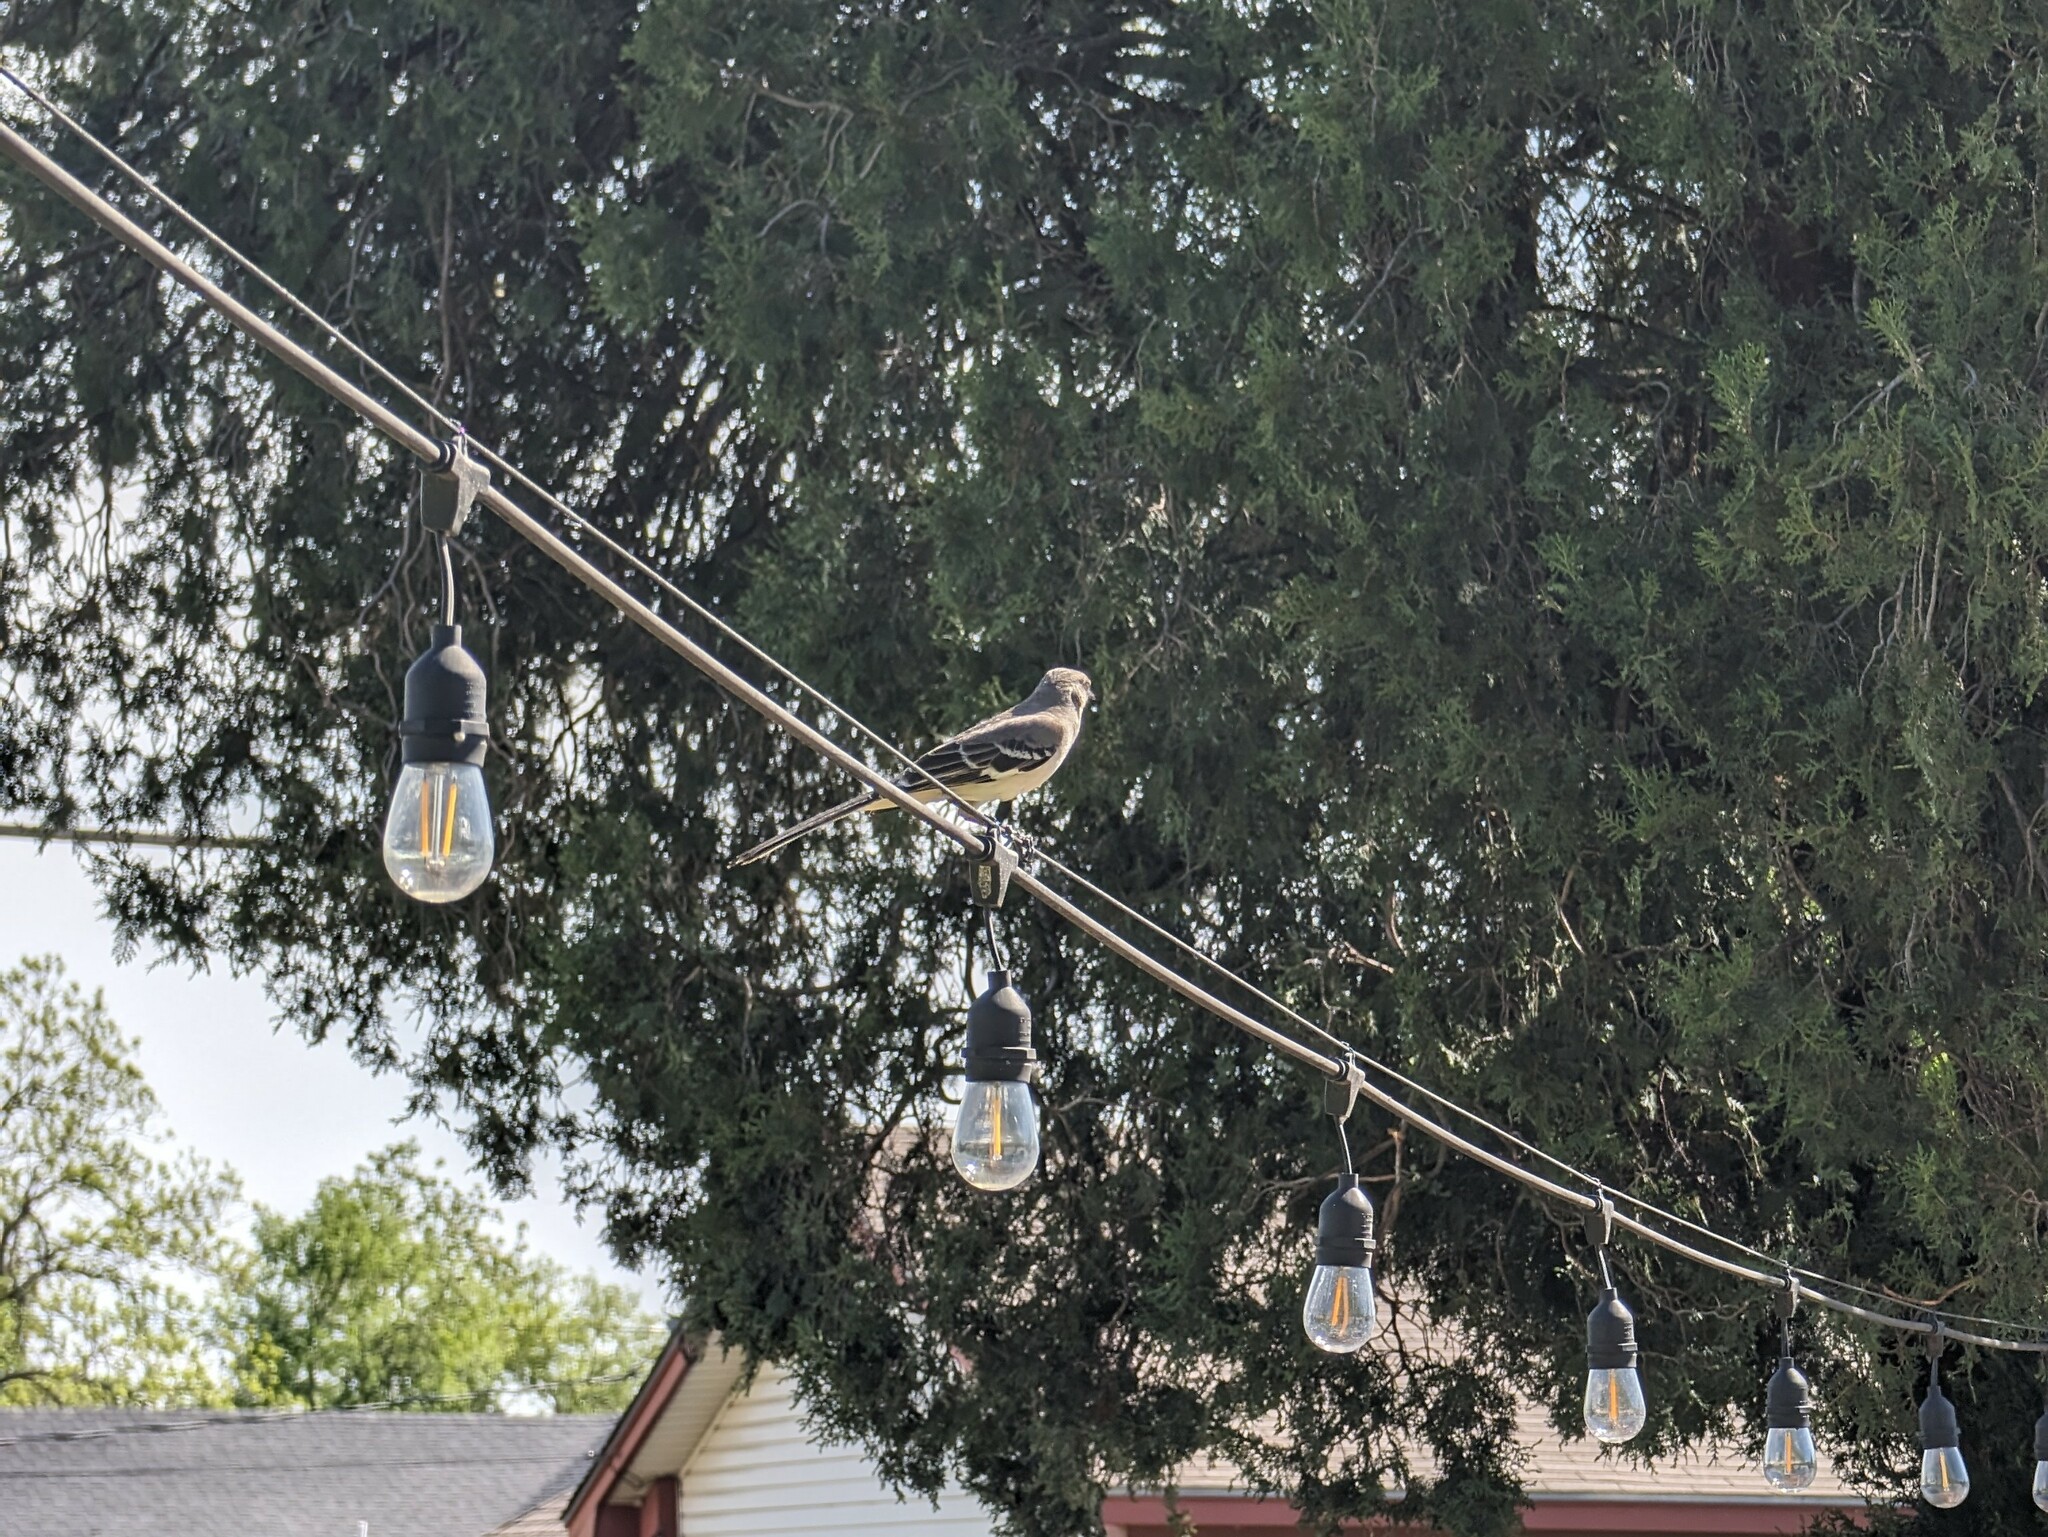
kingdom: Animalia
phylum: Chordata
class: Aves
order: Passeriformes
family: Mimidae
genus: Mimus
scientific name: Mimus polyglottos
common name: Northern mockingbird
